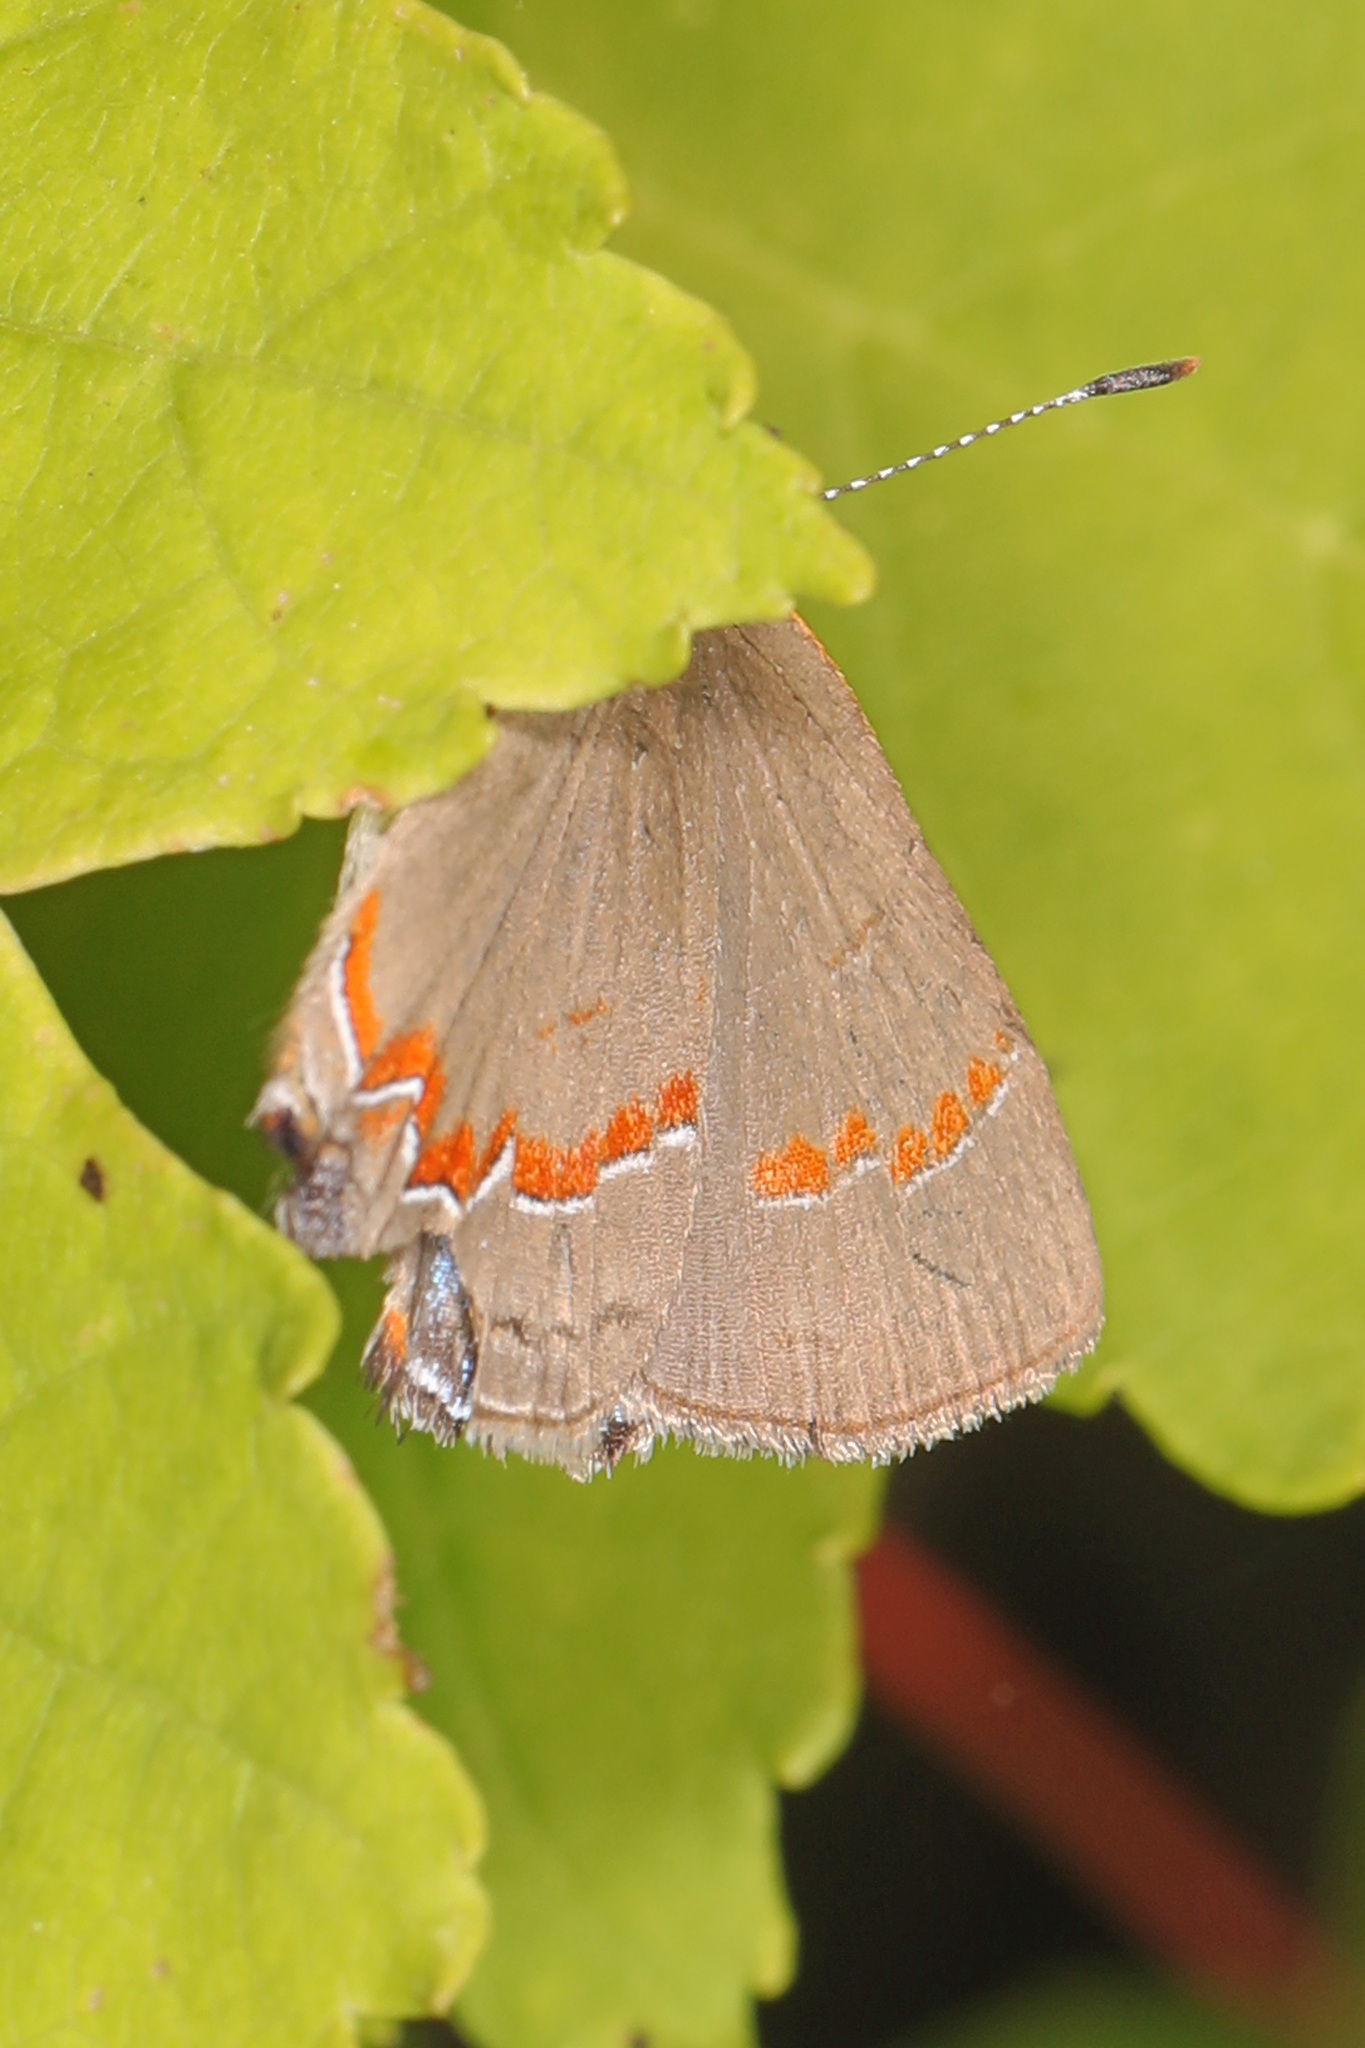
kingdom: Animalia
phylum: Arthropoda
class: Insecta
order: Lepidoptera
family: Lycaenidae
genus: Calycopis
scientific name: Calycopis cecrops
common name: Red-banded hairstreak
